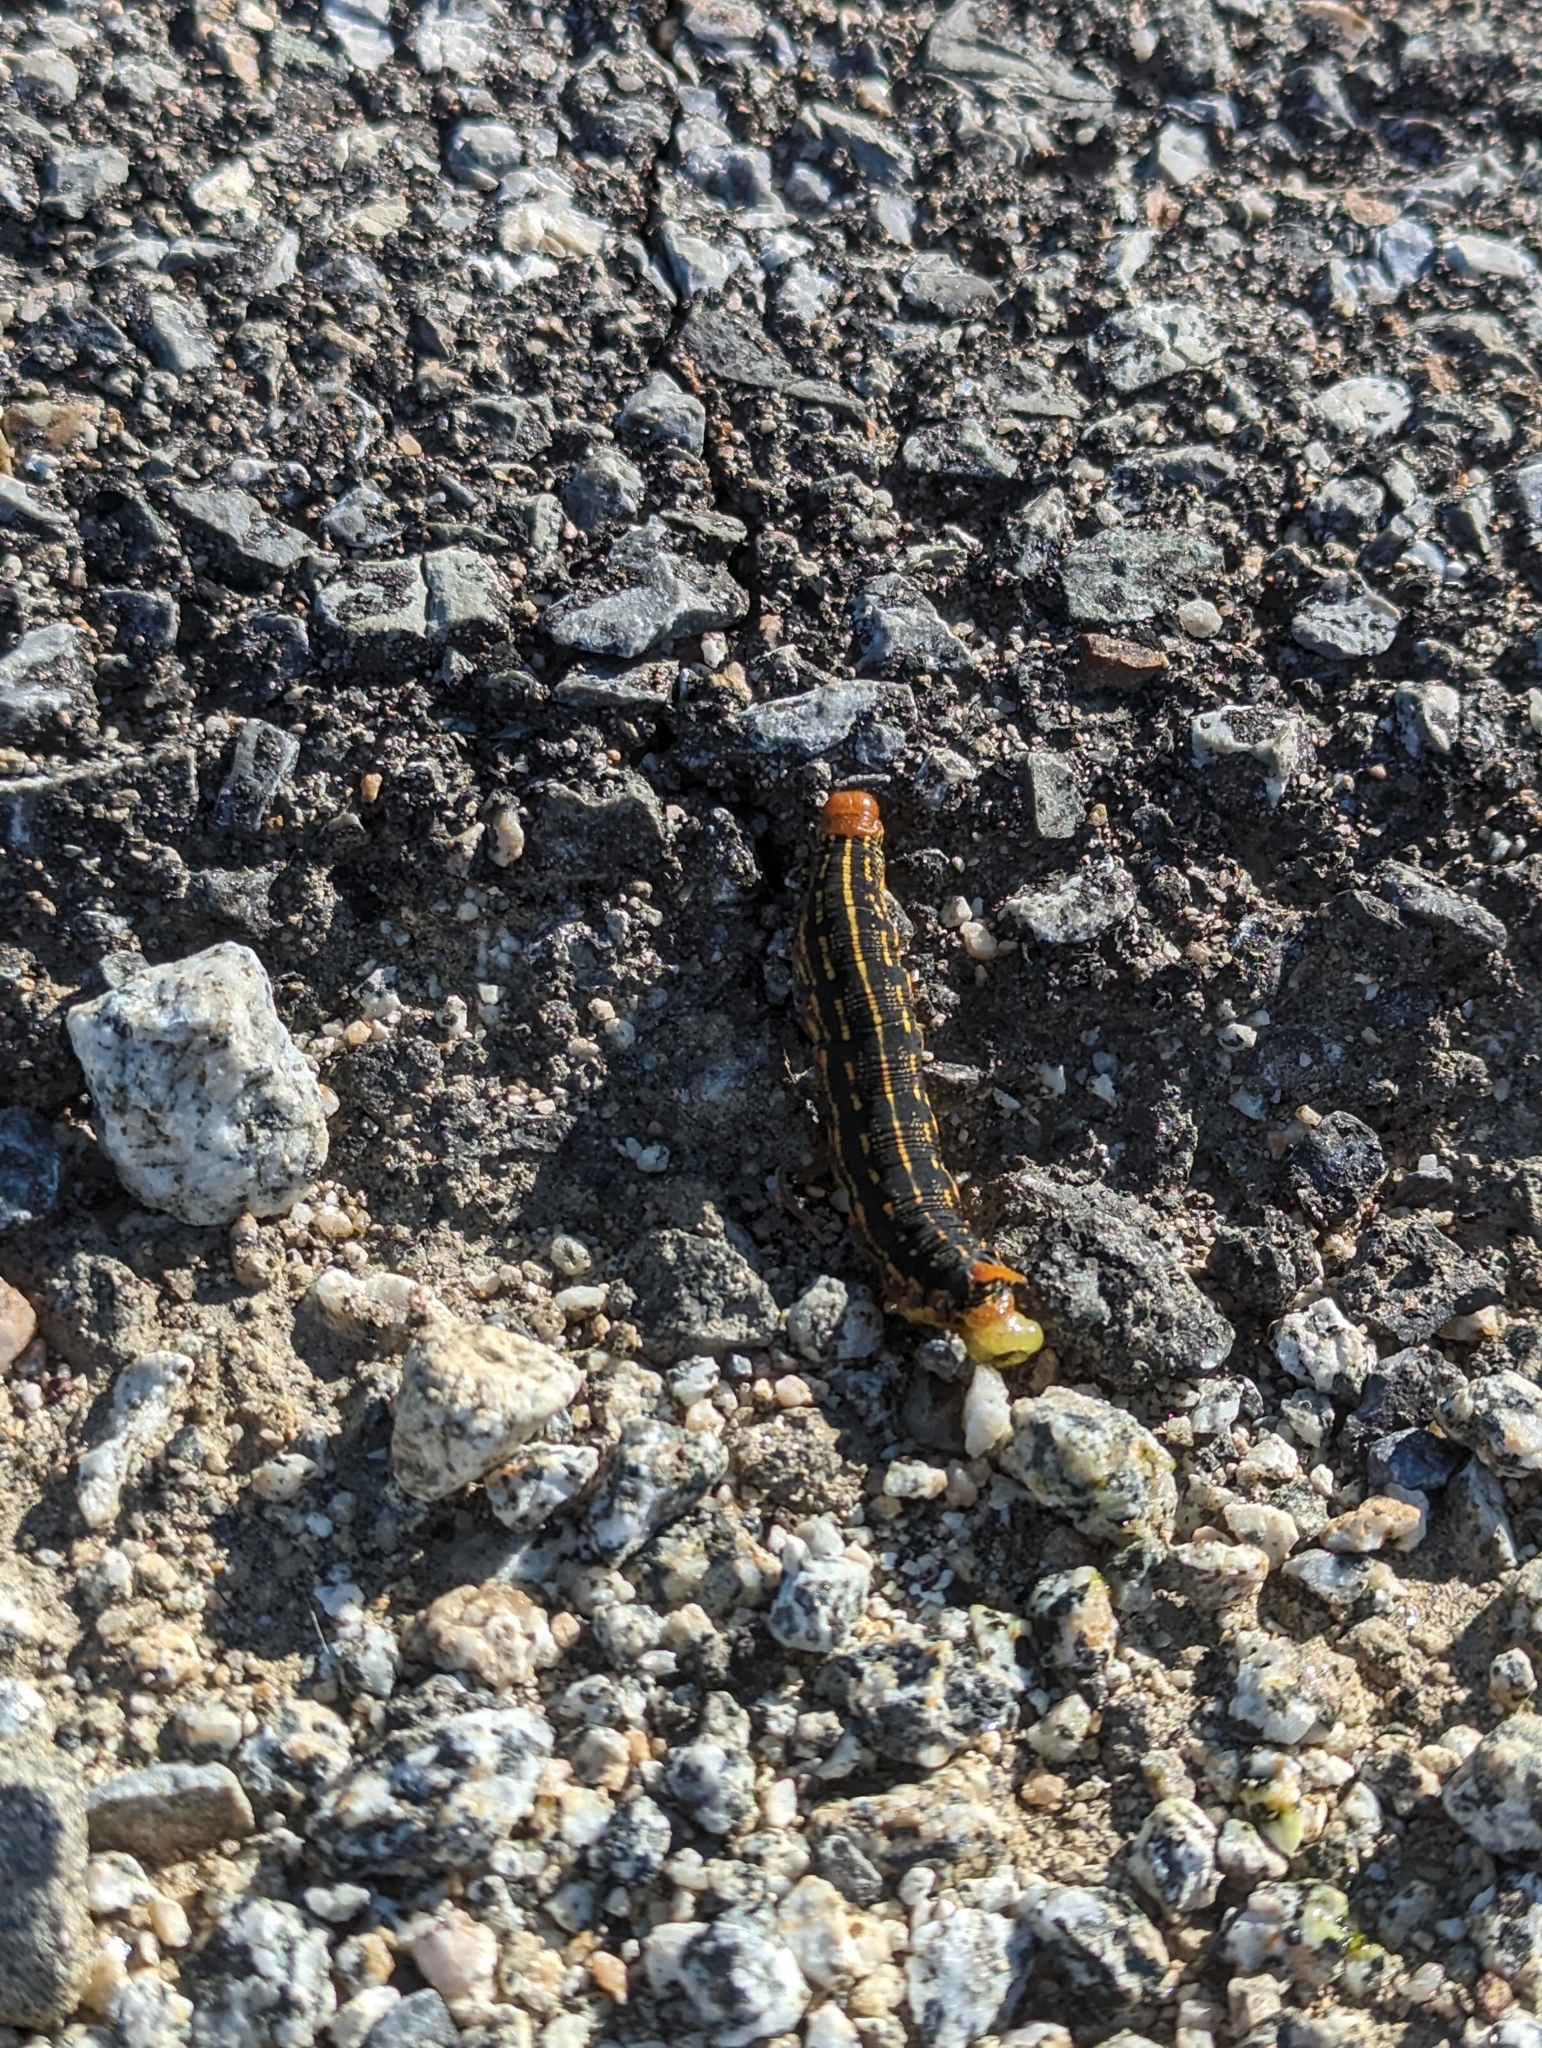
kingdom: Animalia
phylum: Arthropoda
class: Insecta
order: Lepidoptera
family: Sphingidae
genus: Hyles
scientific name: Hyles lineata
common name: White-lined sphinx
